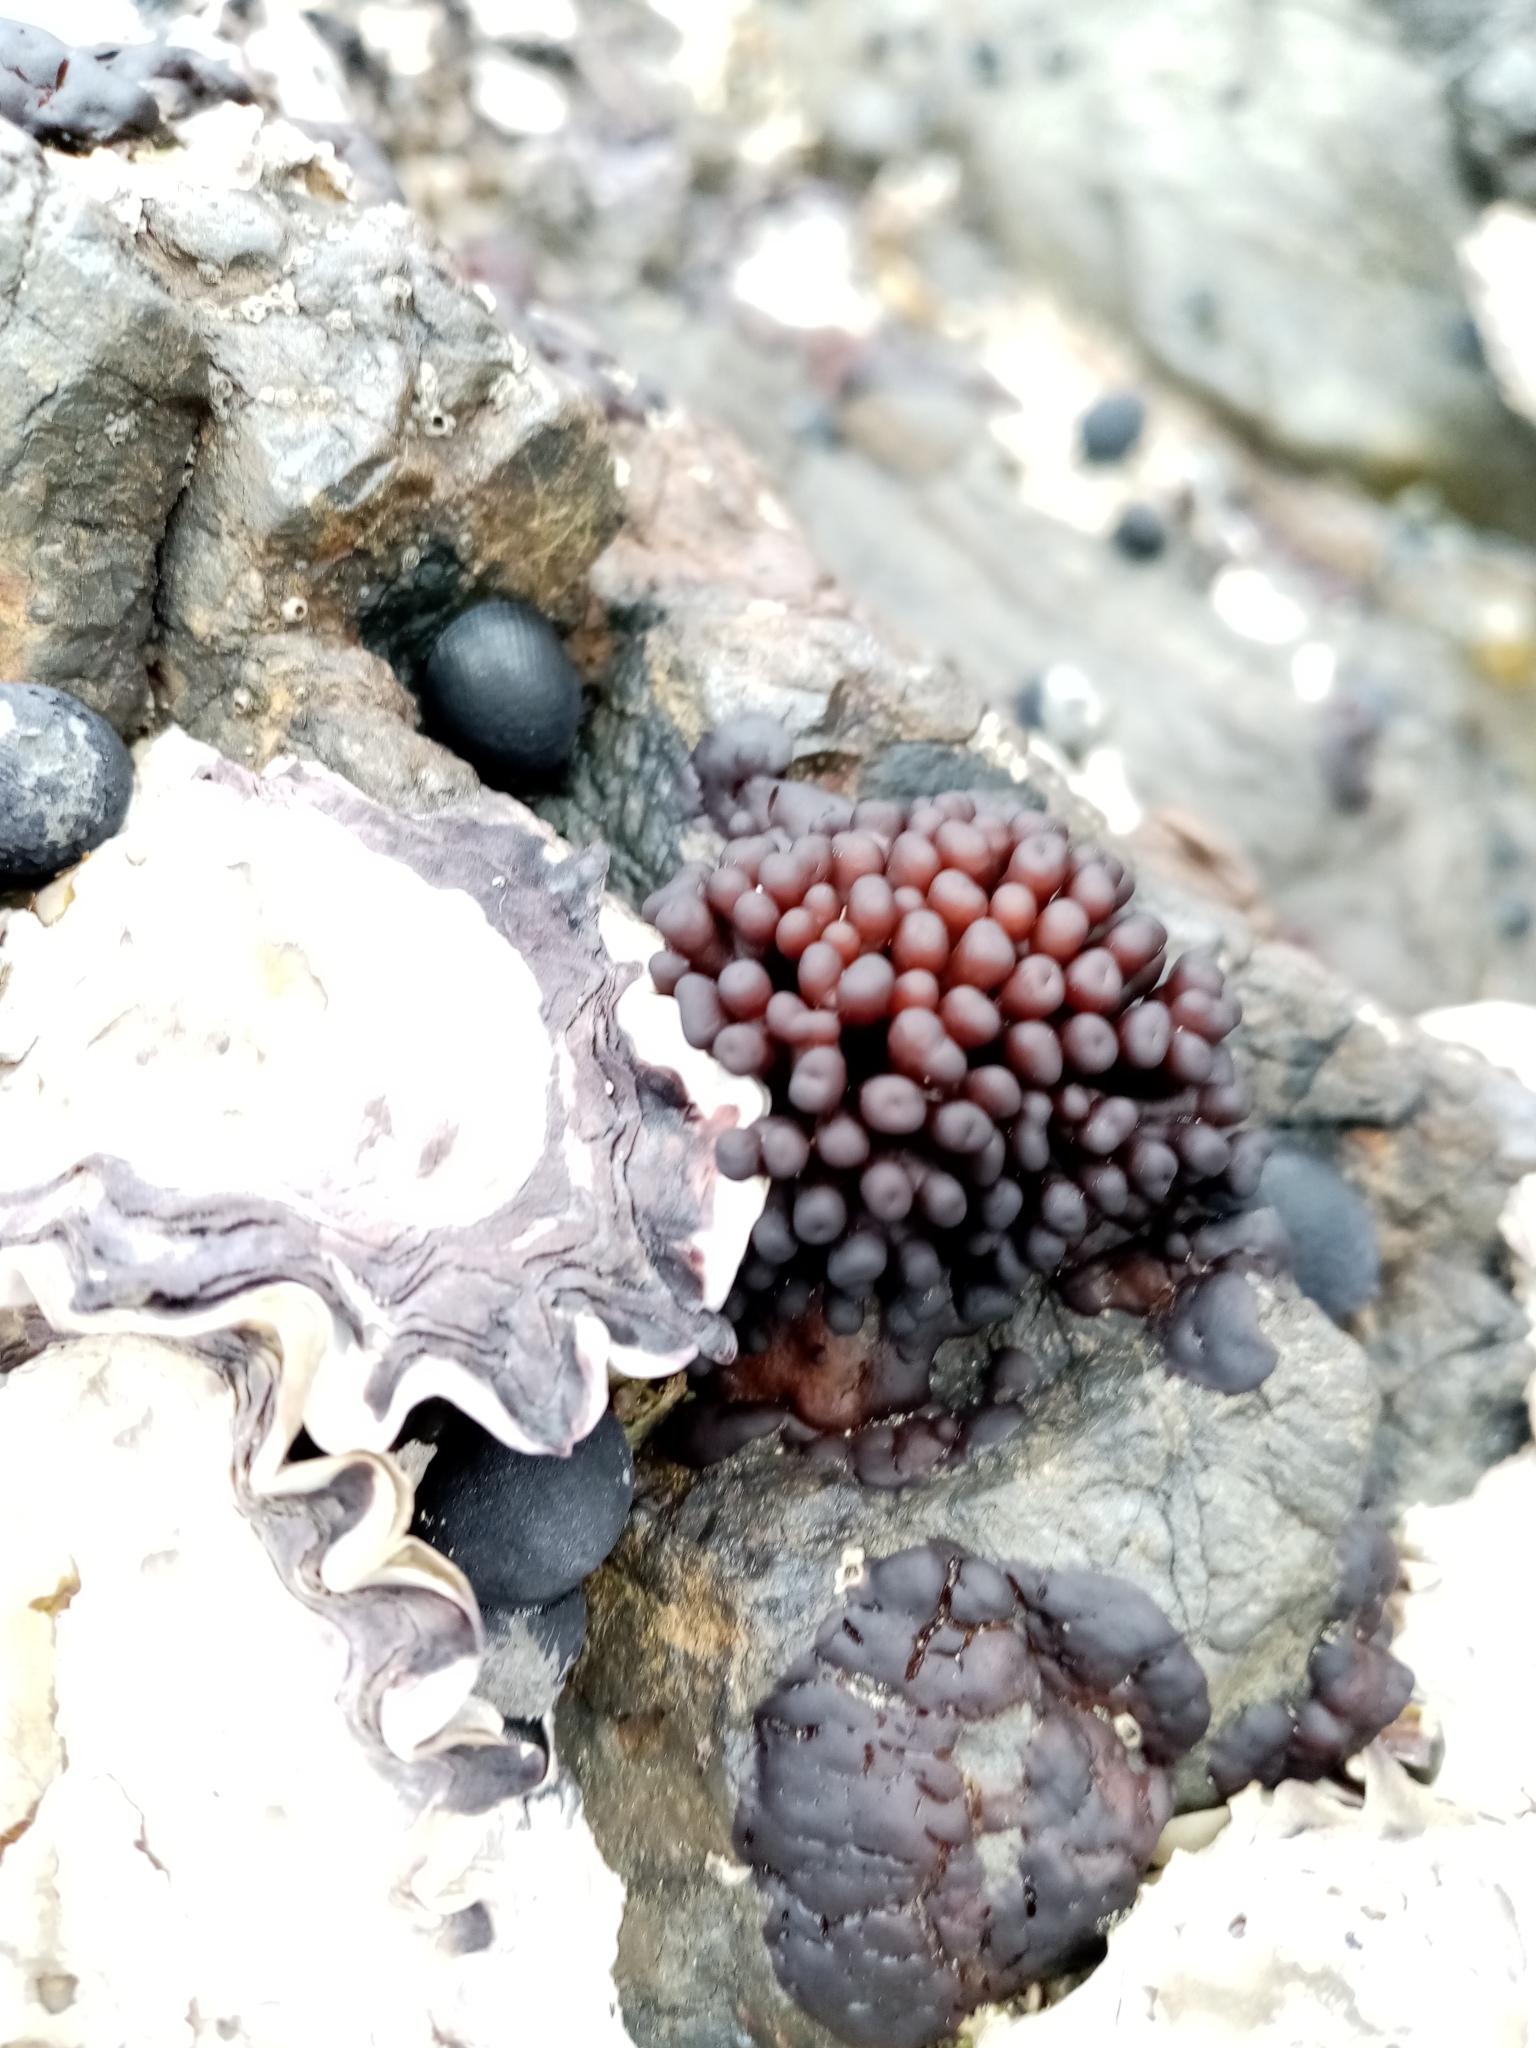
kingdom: Plantae
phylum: Rhodophyta
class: Florideophyceae
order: Hildenbrandiales
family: Hildenbrandiaceae
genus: Apophlaea
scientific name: Apophlaea sinclairii
